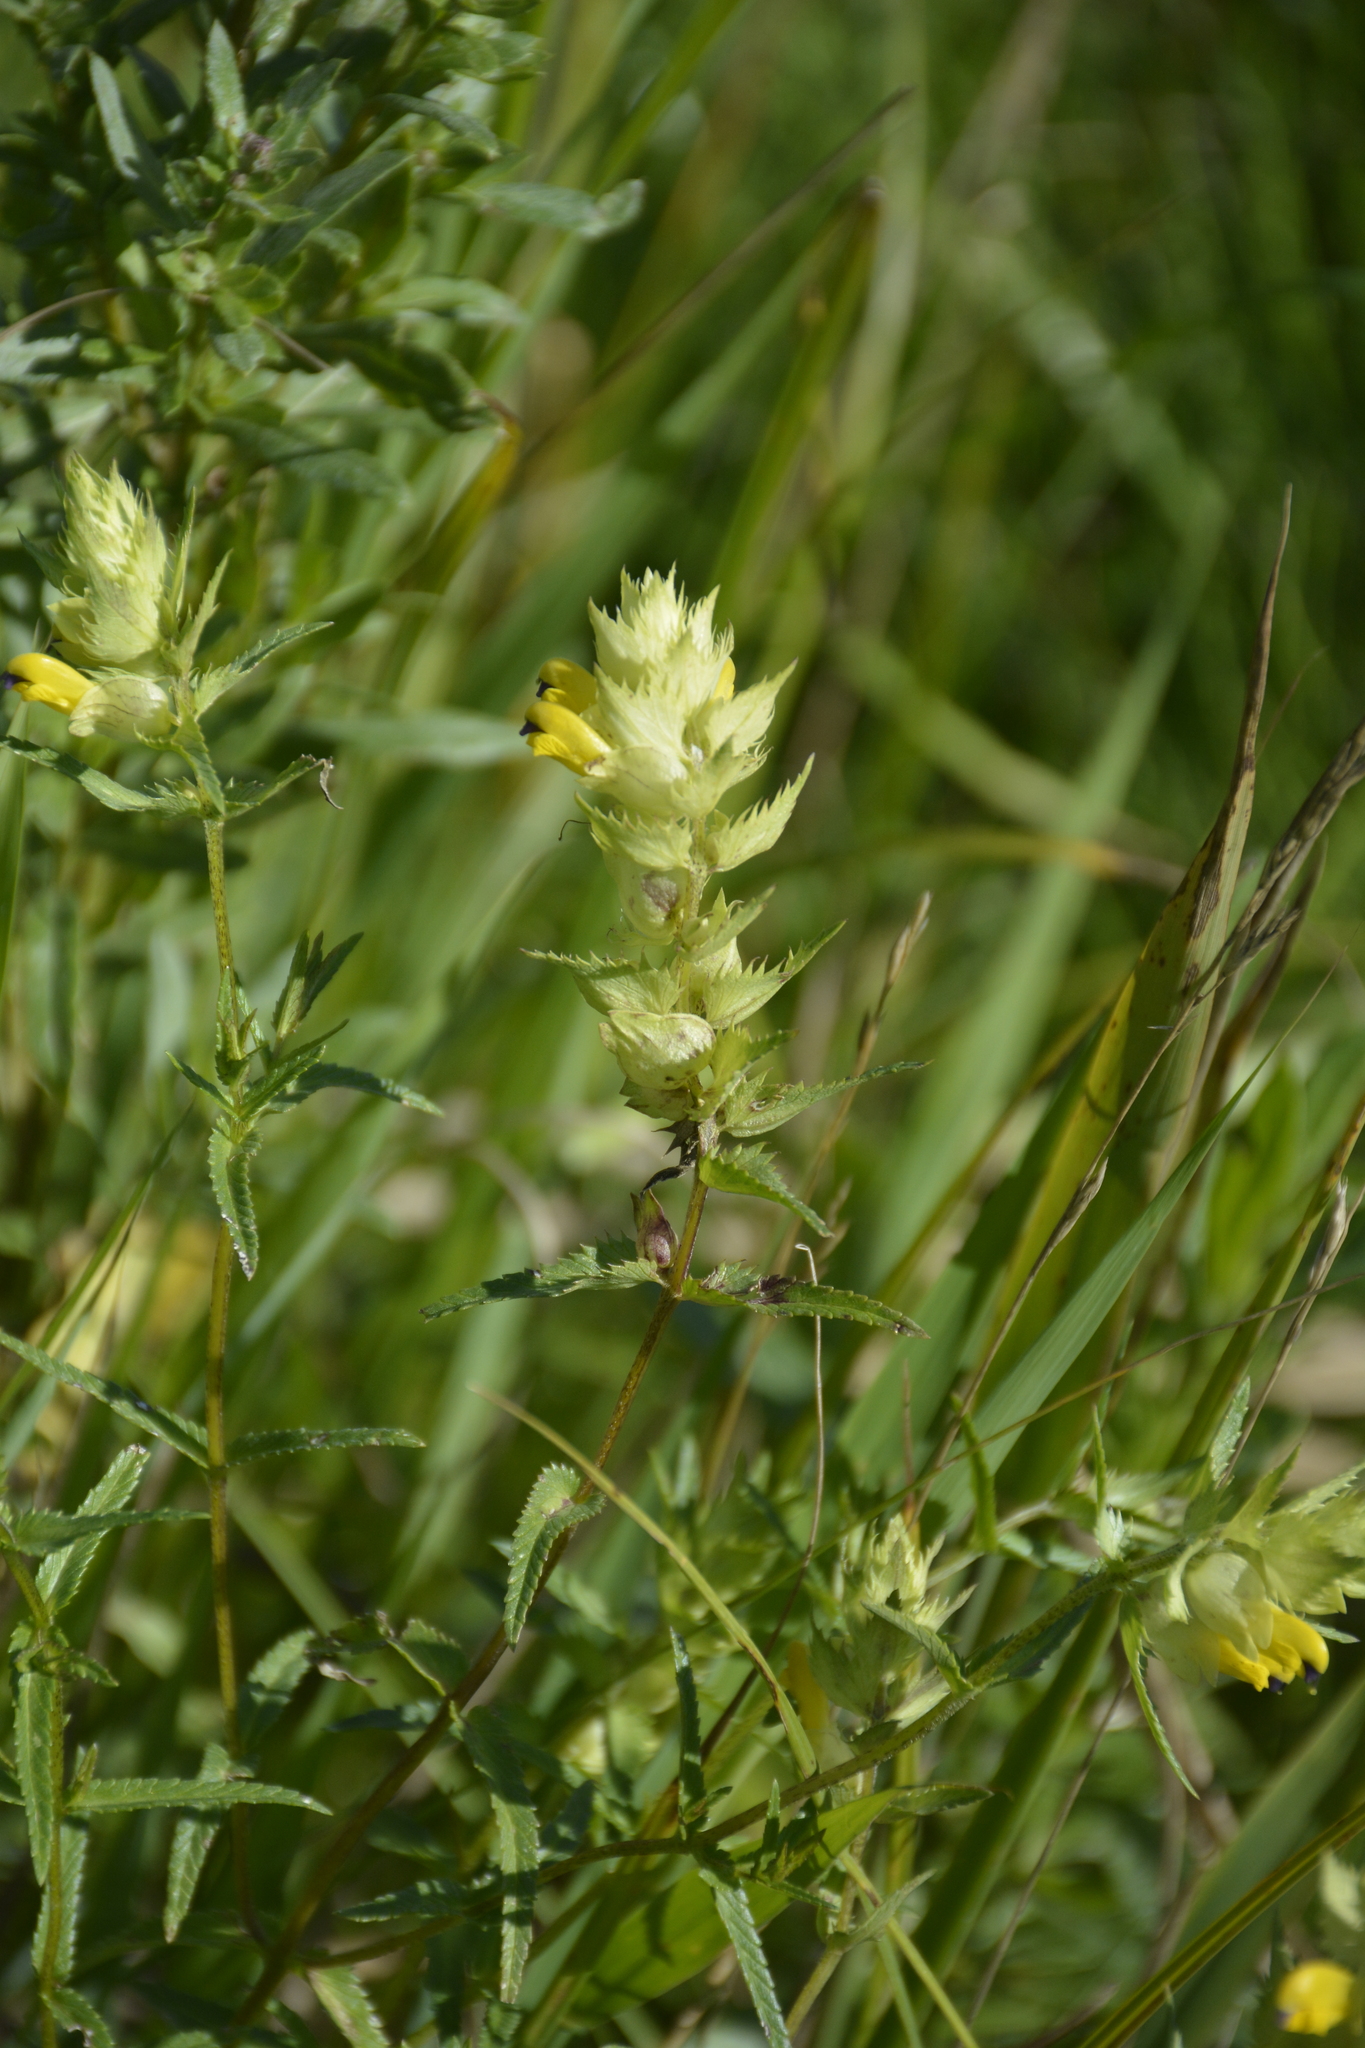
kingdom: Plantae
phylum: Tracheophyta
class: Magnoliopsida
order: Lamiales
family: Orobanchaceae
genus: Rhinanthus
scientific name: Rhinanthus serotinus
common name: Late-flowering yellow rattle
